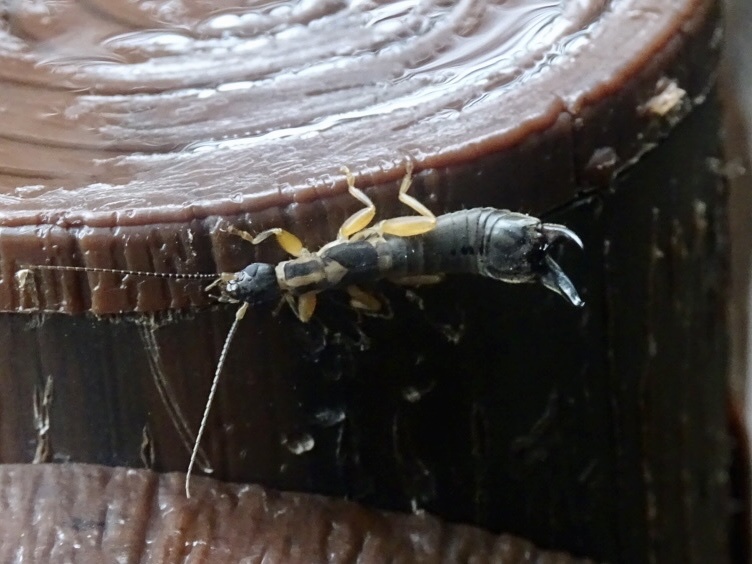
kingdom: Animalia
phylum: Arthropoda
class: Insecta
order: Dermaptera
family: Pygidicranidae
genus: Cranopygia
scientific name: Cranopygia vitticollis
